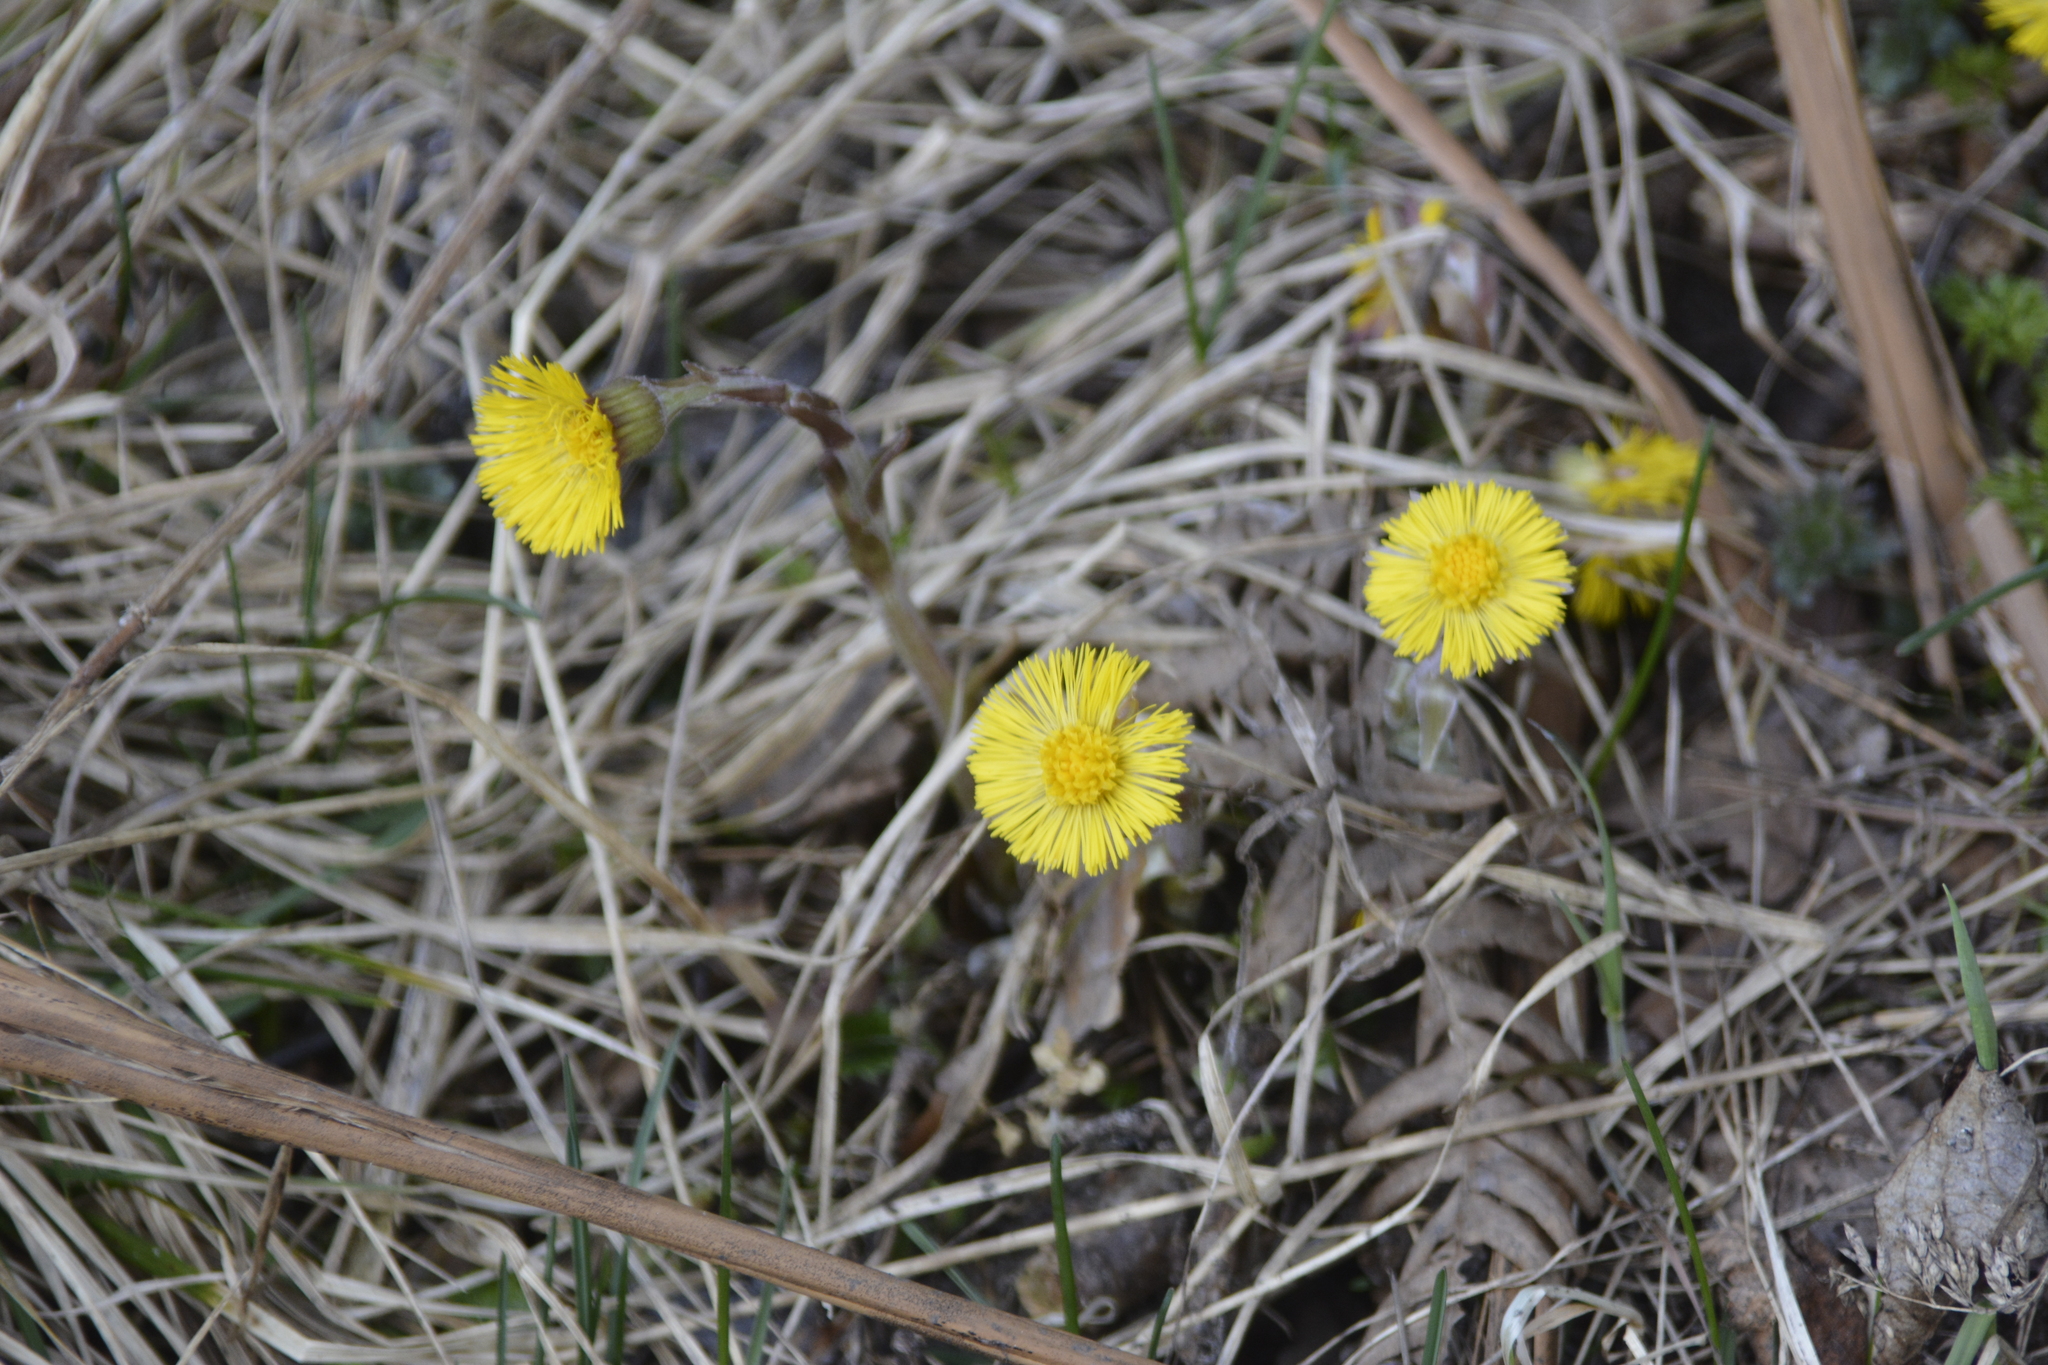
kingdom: Plantae
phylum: Tracheophyta
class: Magnoliopsida
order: Asterales
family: Asteraceae
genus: Tussilago
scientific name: Tussilago farfara
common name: Coltsfoot
